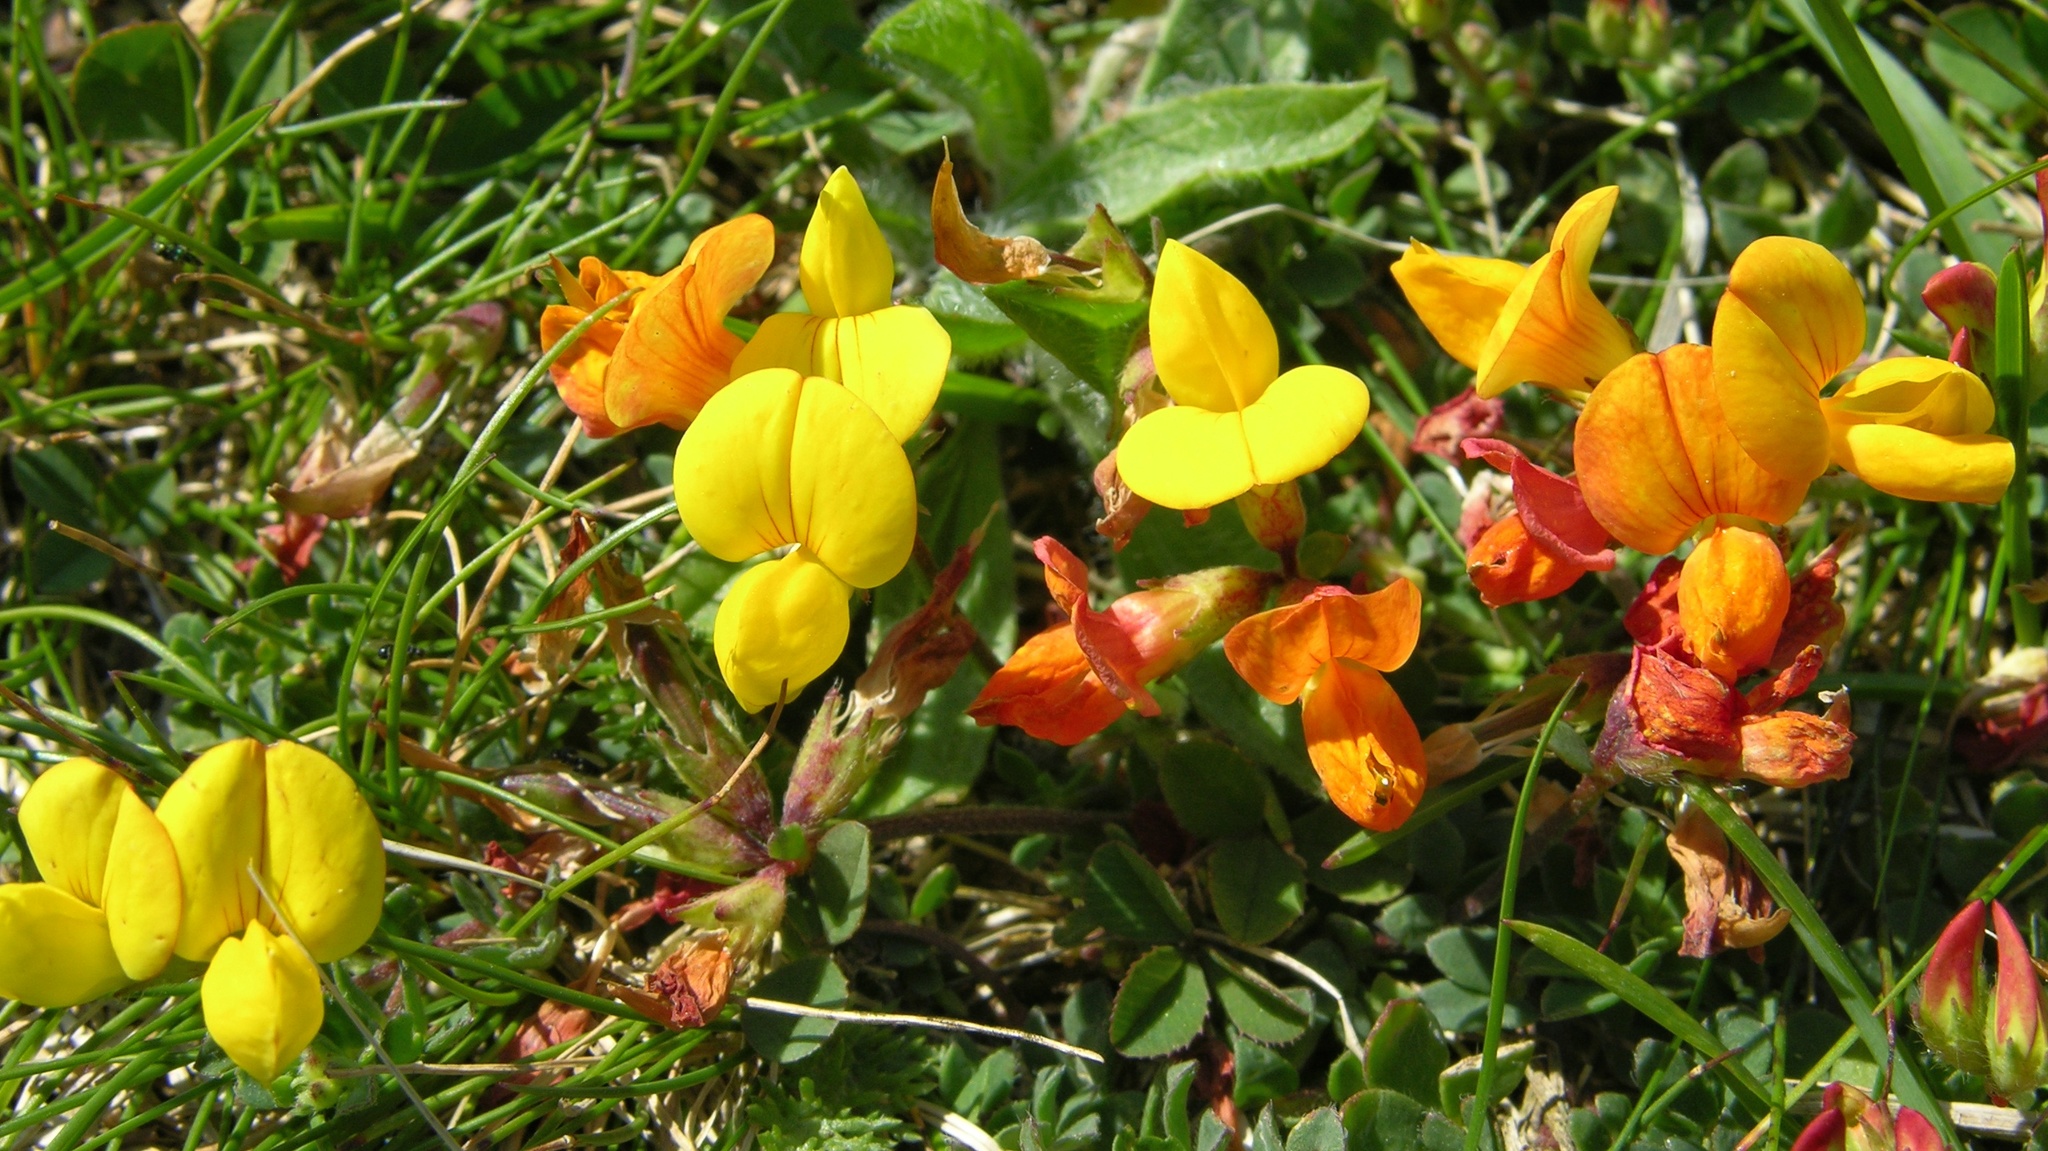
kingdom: Plantae
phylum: Tracheophyta
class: Magnoliopsida
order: Fabales
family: Fabaceae
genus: Lotus
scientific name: Lotus corniculatus
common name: Common bird's-foot-trefoil
